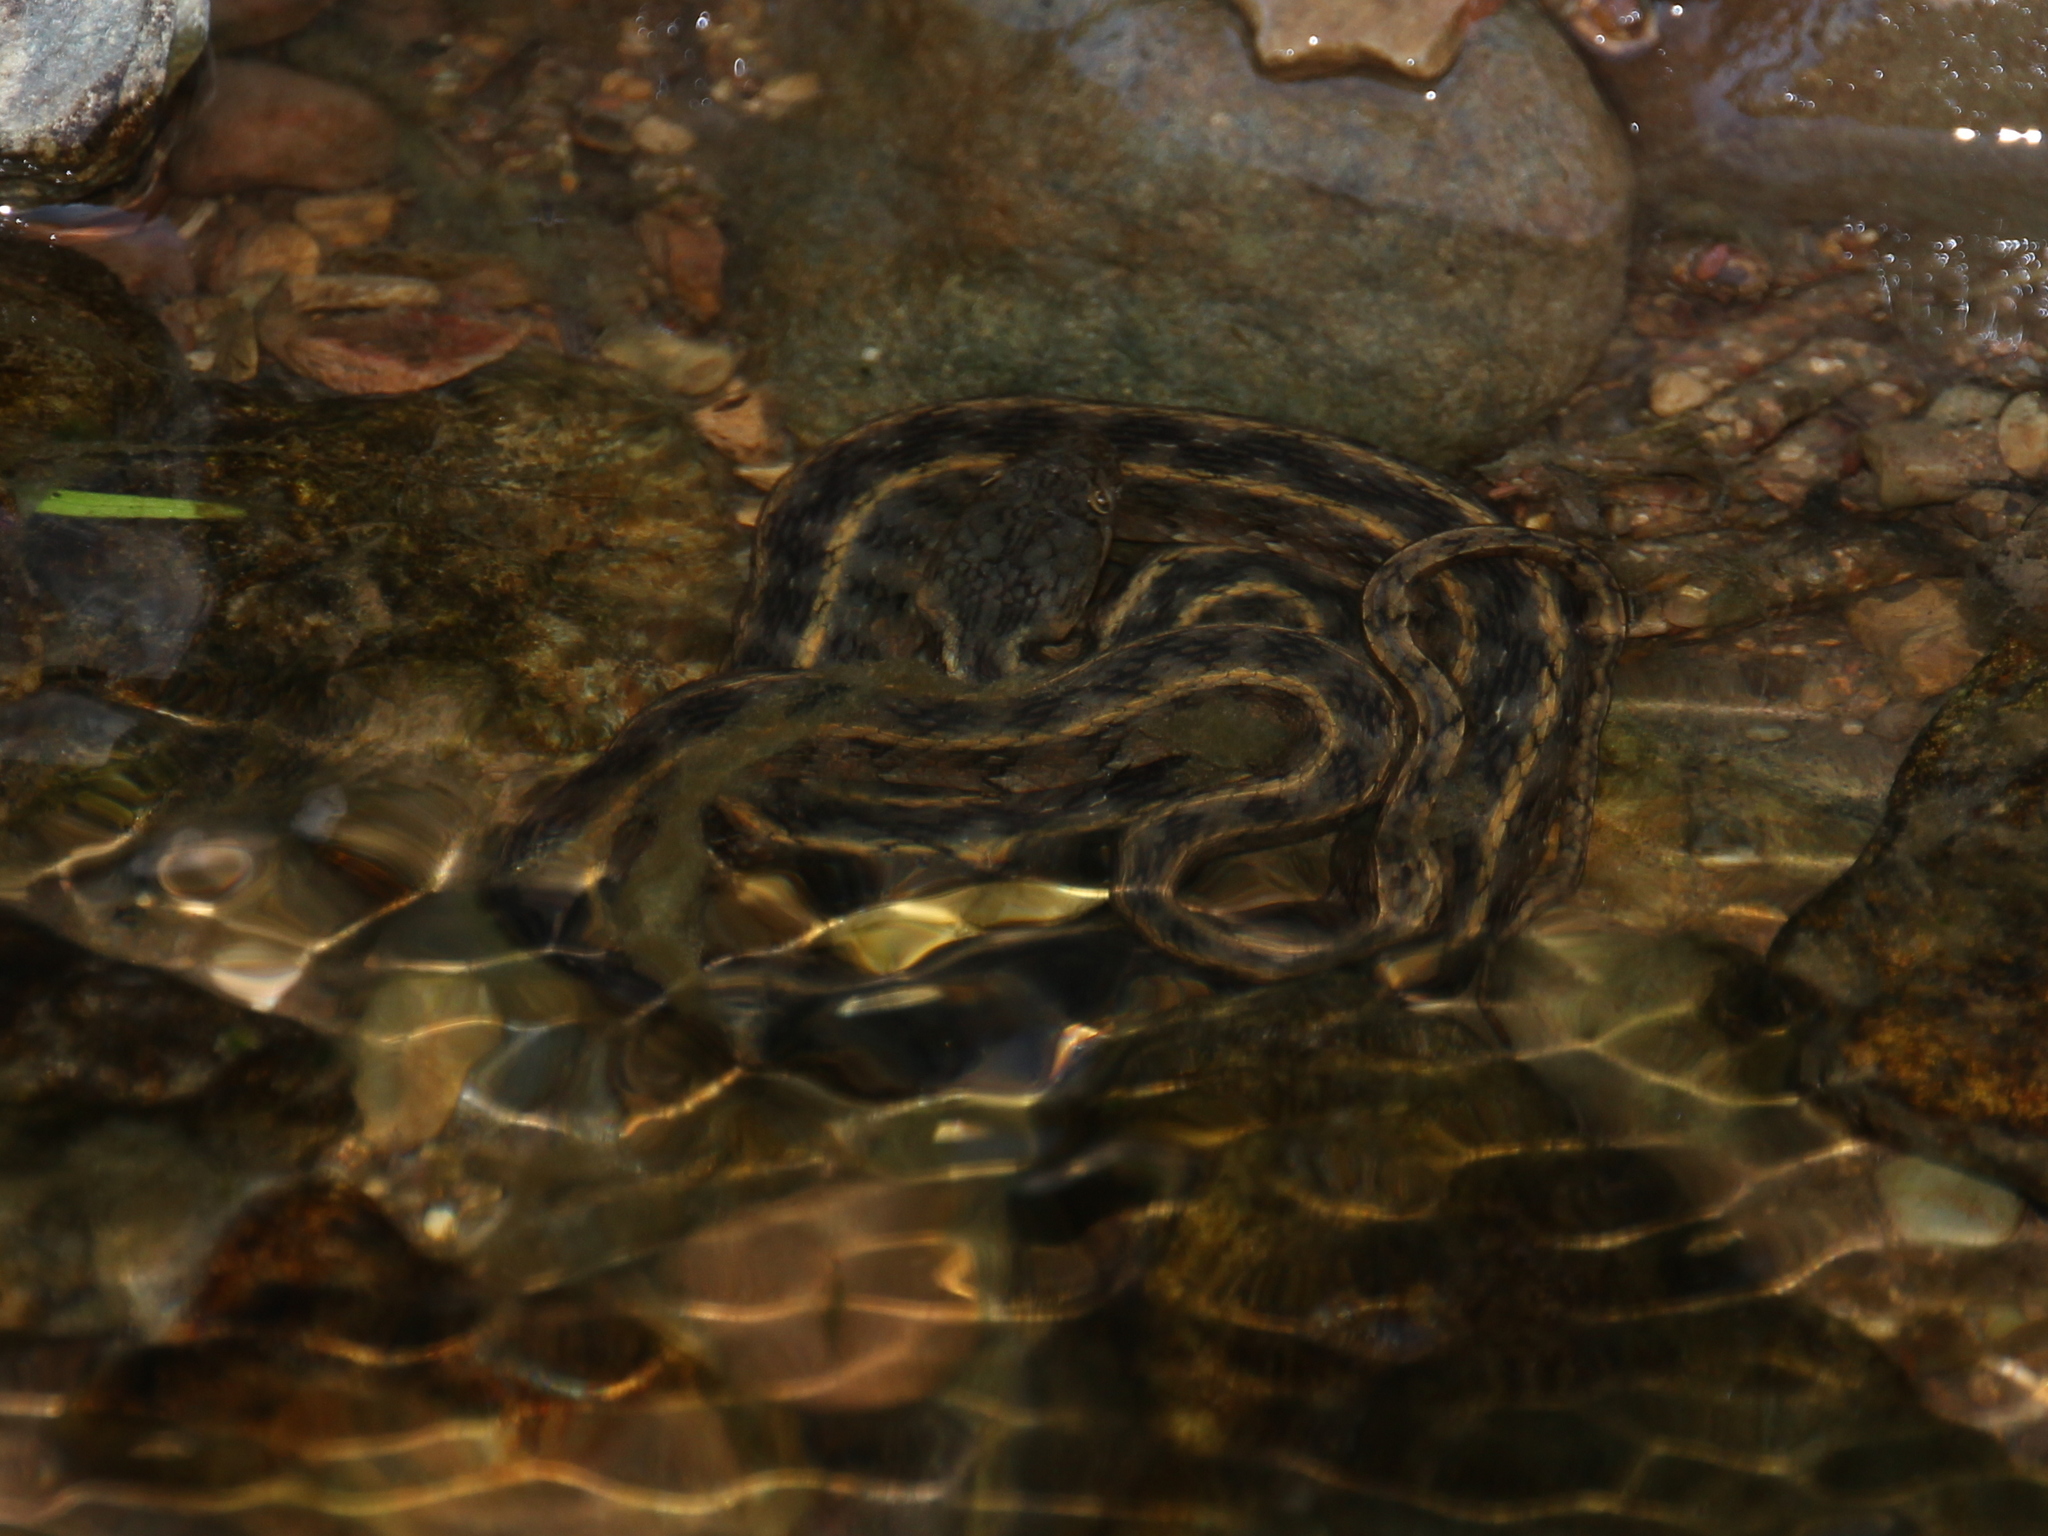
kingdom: Animalia
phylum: Chordata
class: Squamata
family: Colubridae
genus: Natrix
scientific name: Natrix maura
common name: Viperine water snake
